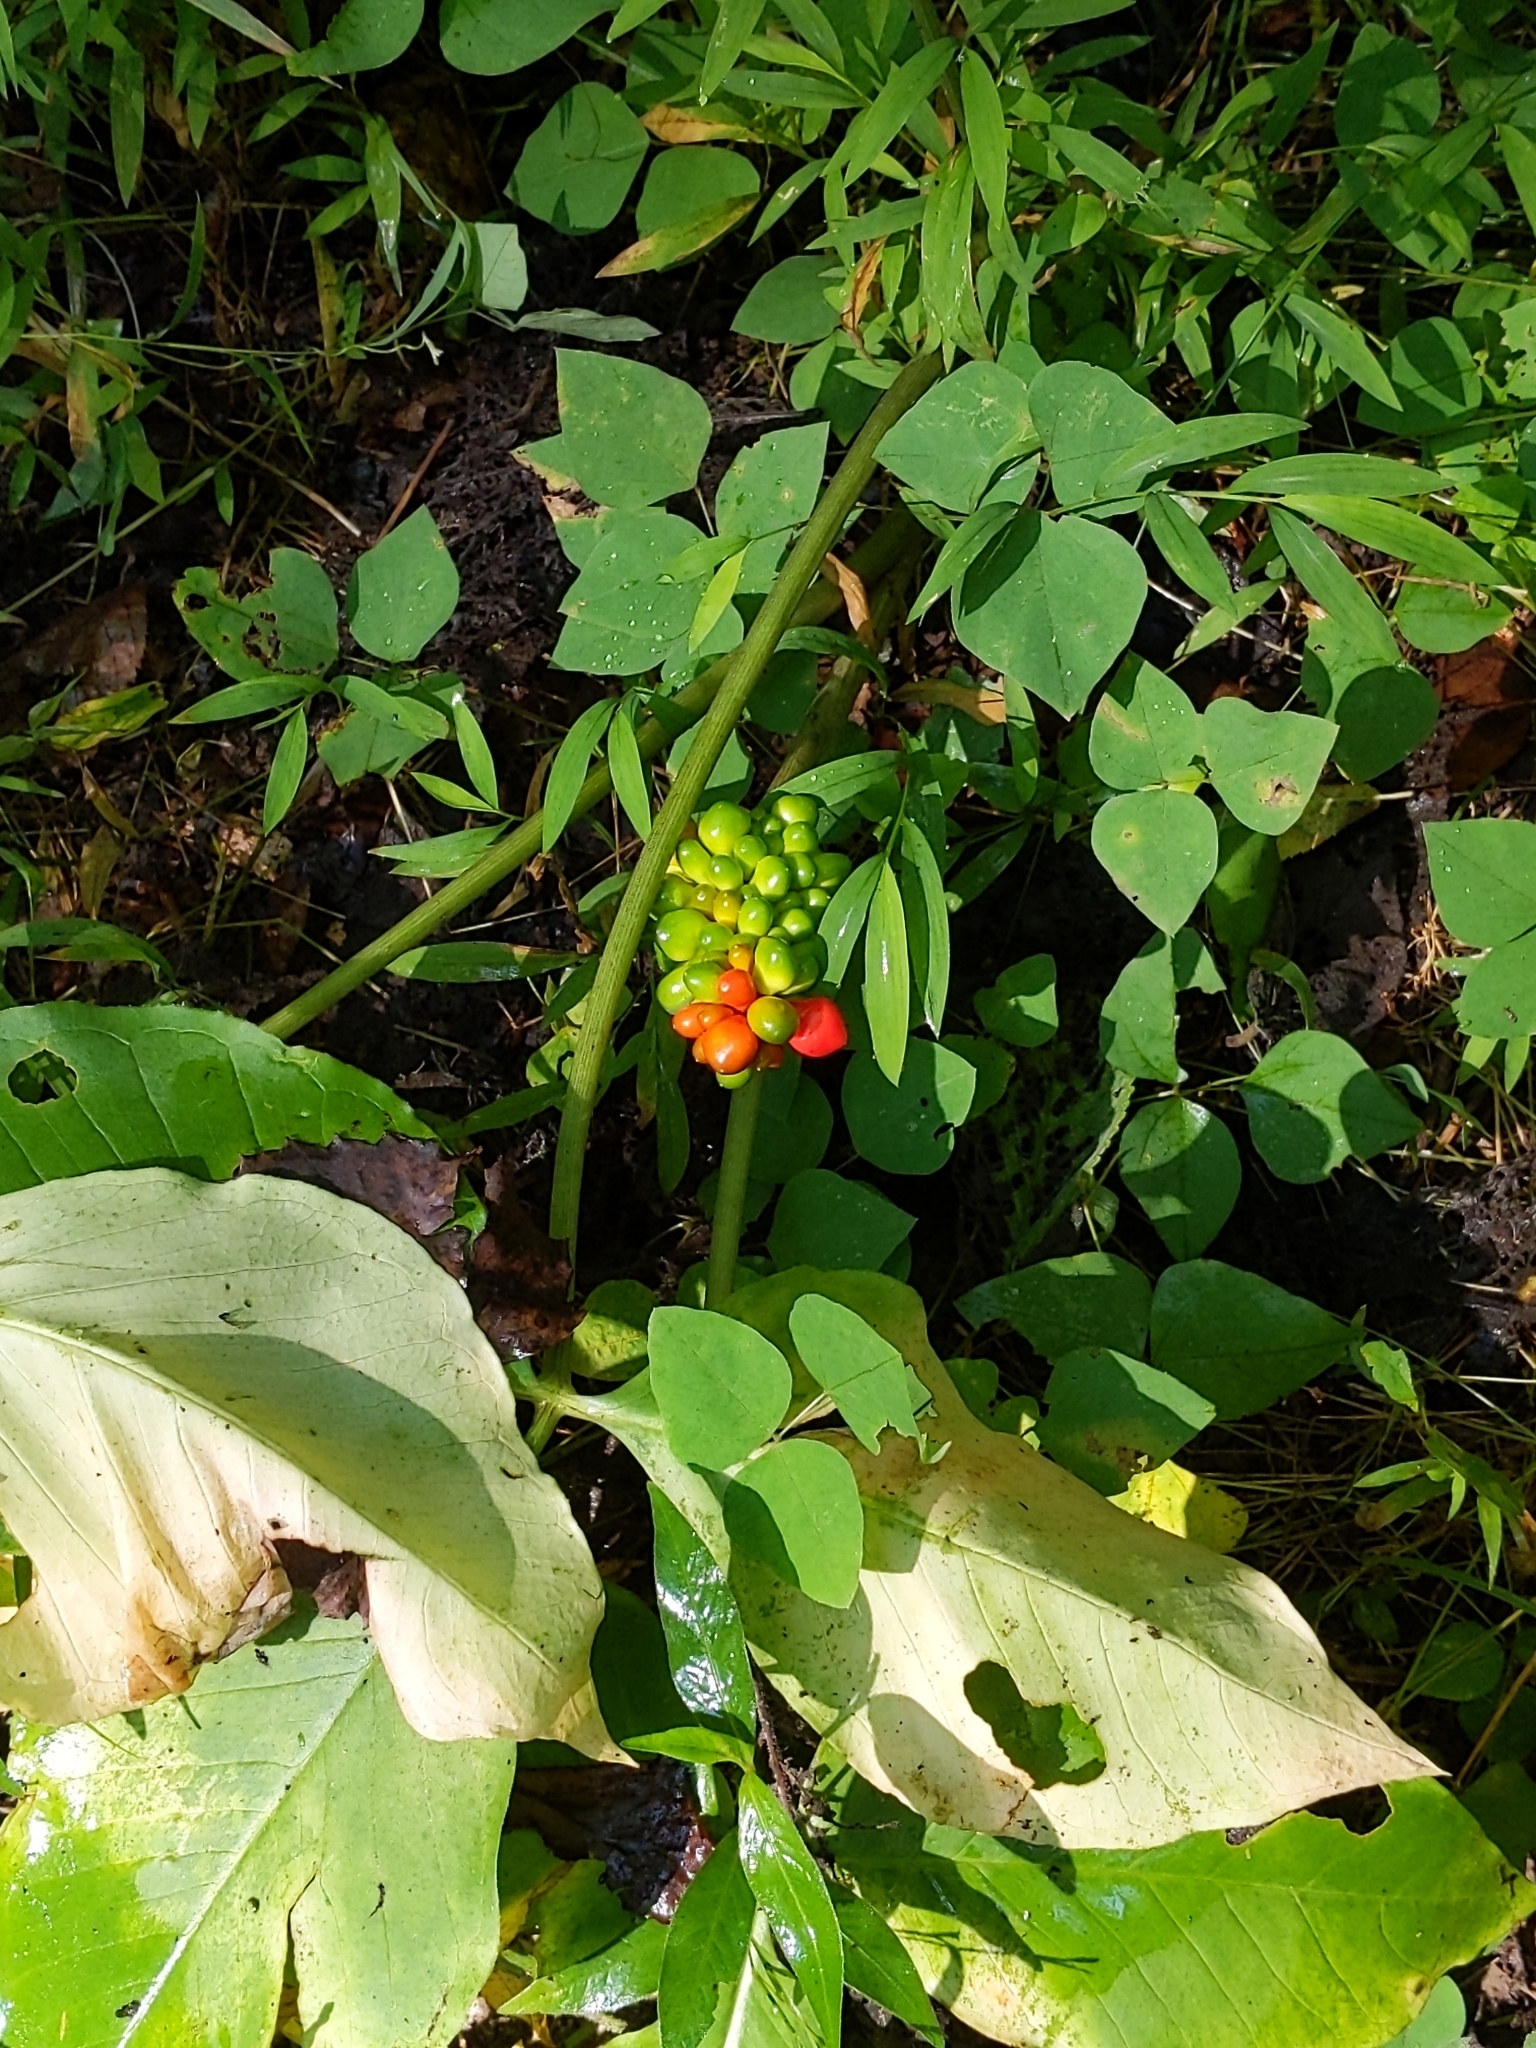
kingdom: Plantae
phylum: Tracheophyta
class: Liliopsida
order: Alismatales
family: Araceae
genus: Arisaema
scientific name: Arisaema triphyllum
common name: Jack-in-the-pulpit
